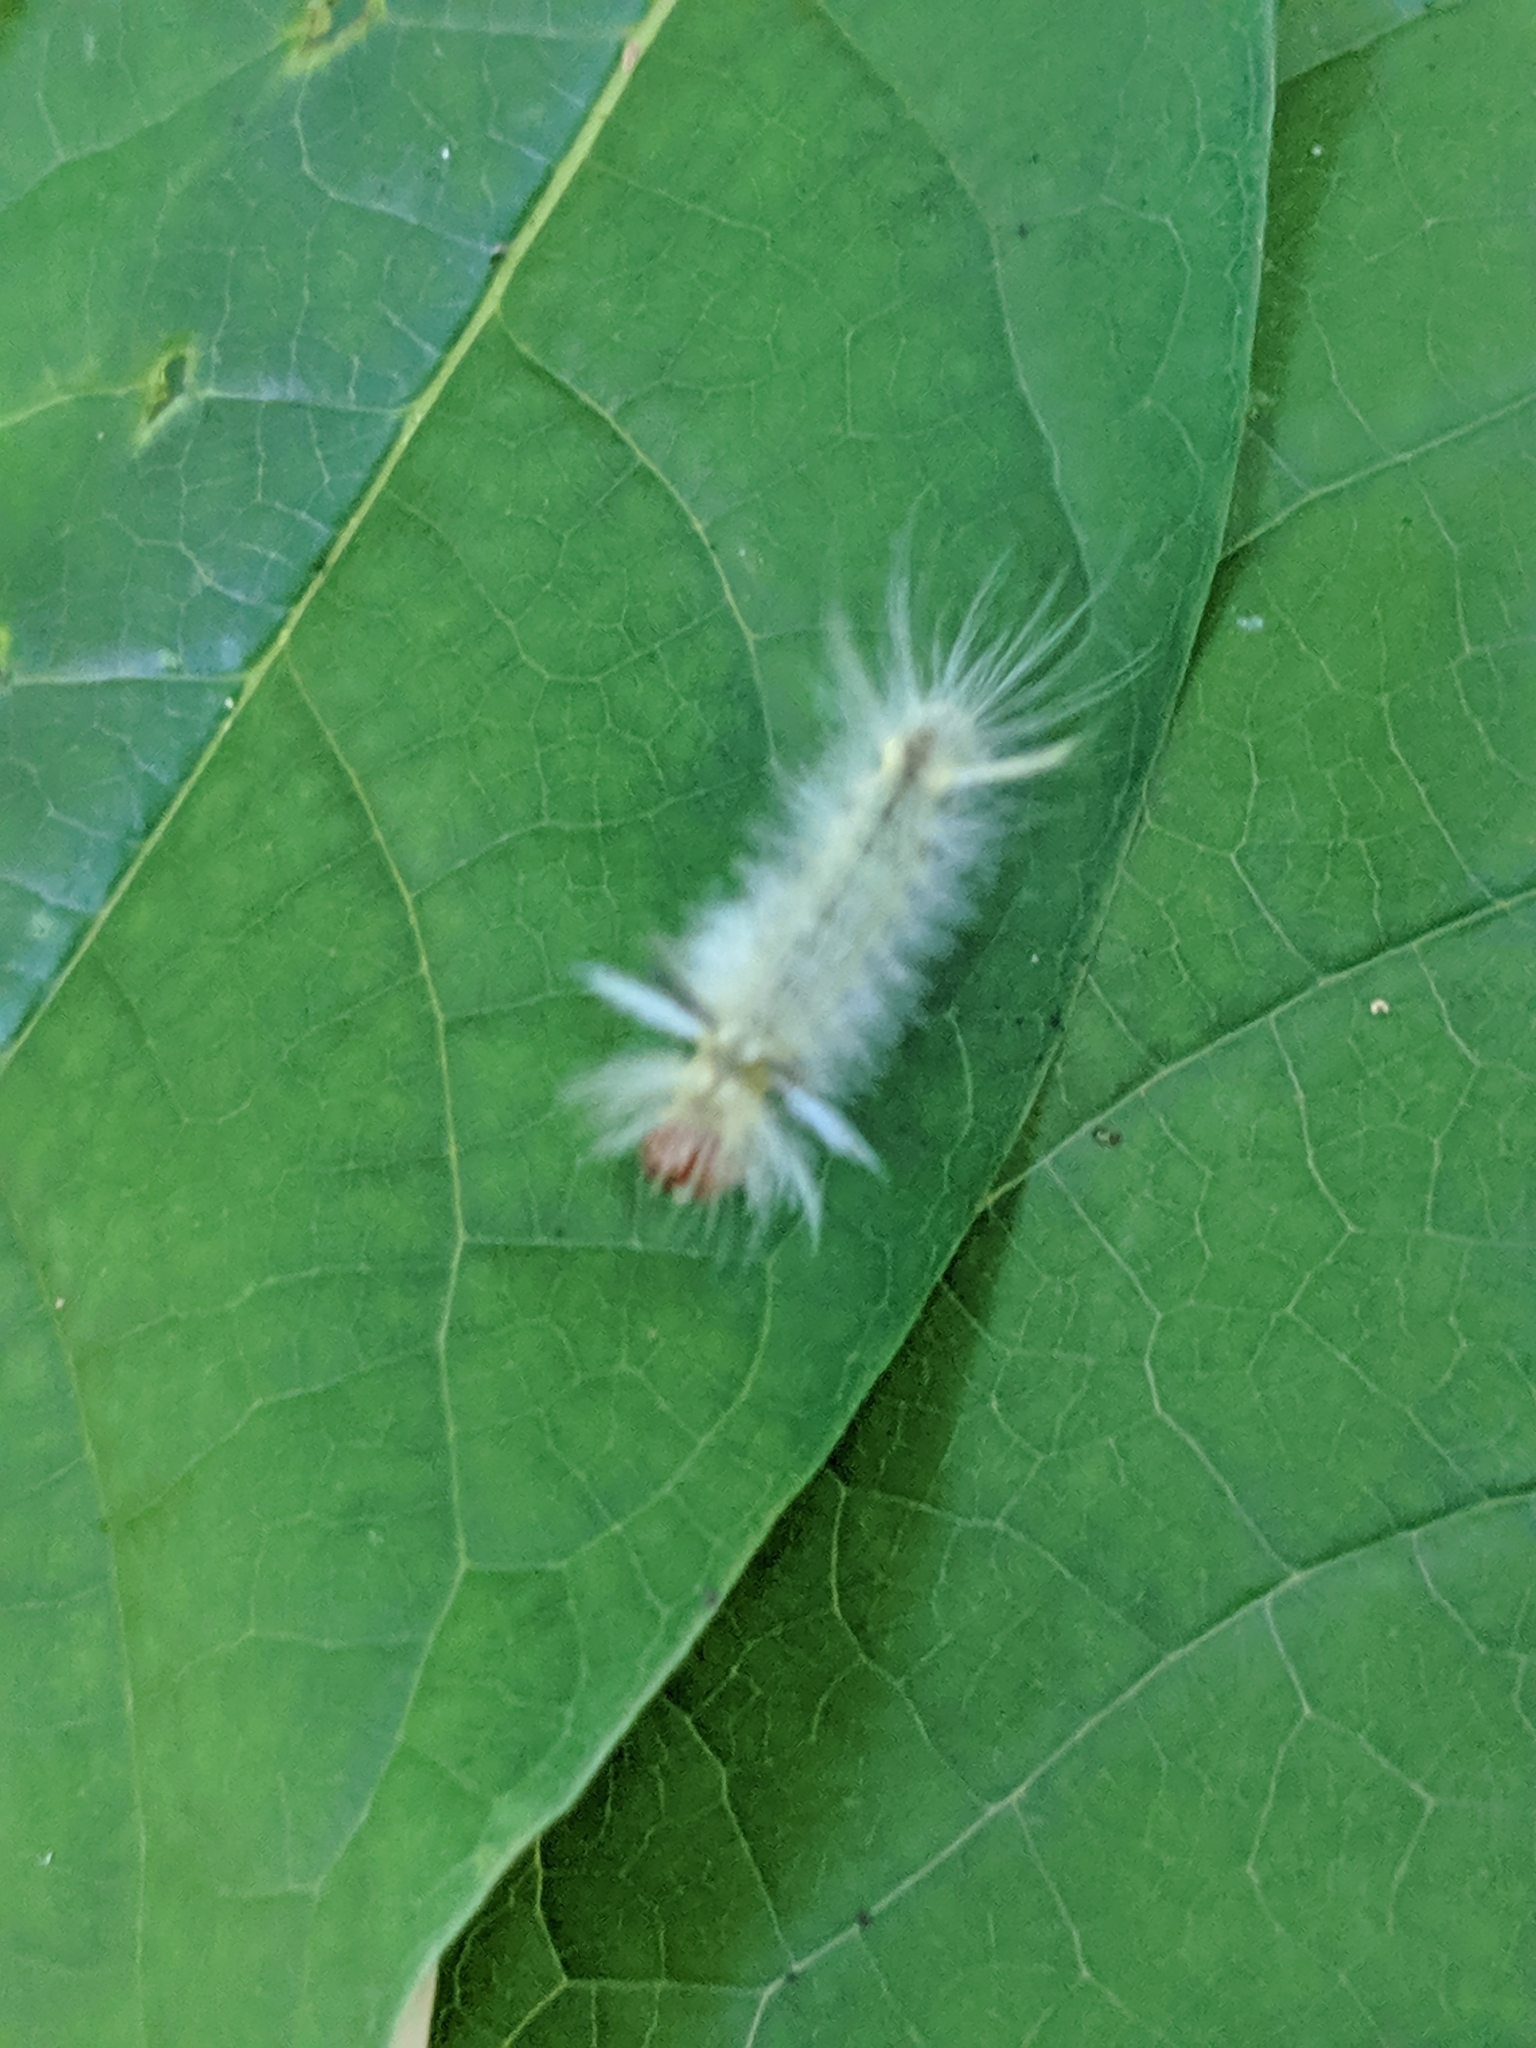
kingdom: Animalia
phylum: Arthropoda
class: Insecta
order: Lepidoptera
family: Erebidae
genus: Halysidota
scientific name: Halysidota tessellaris
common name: Banded tussock moth
